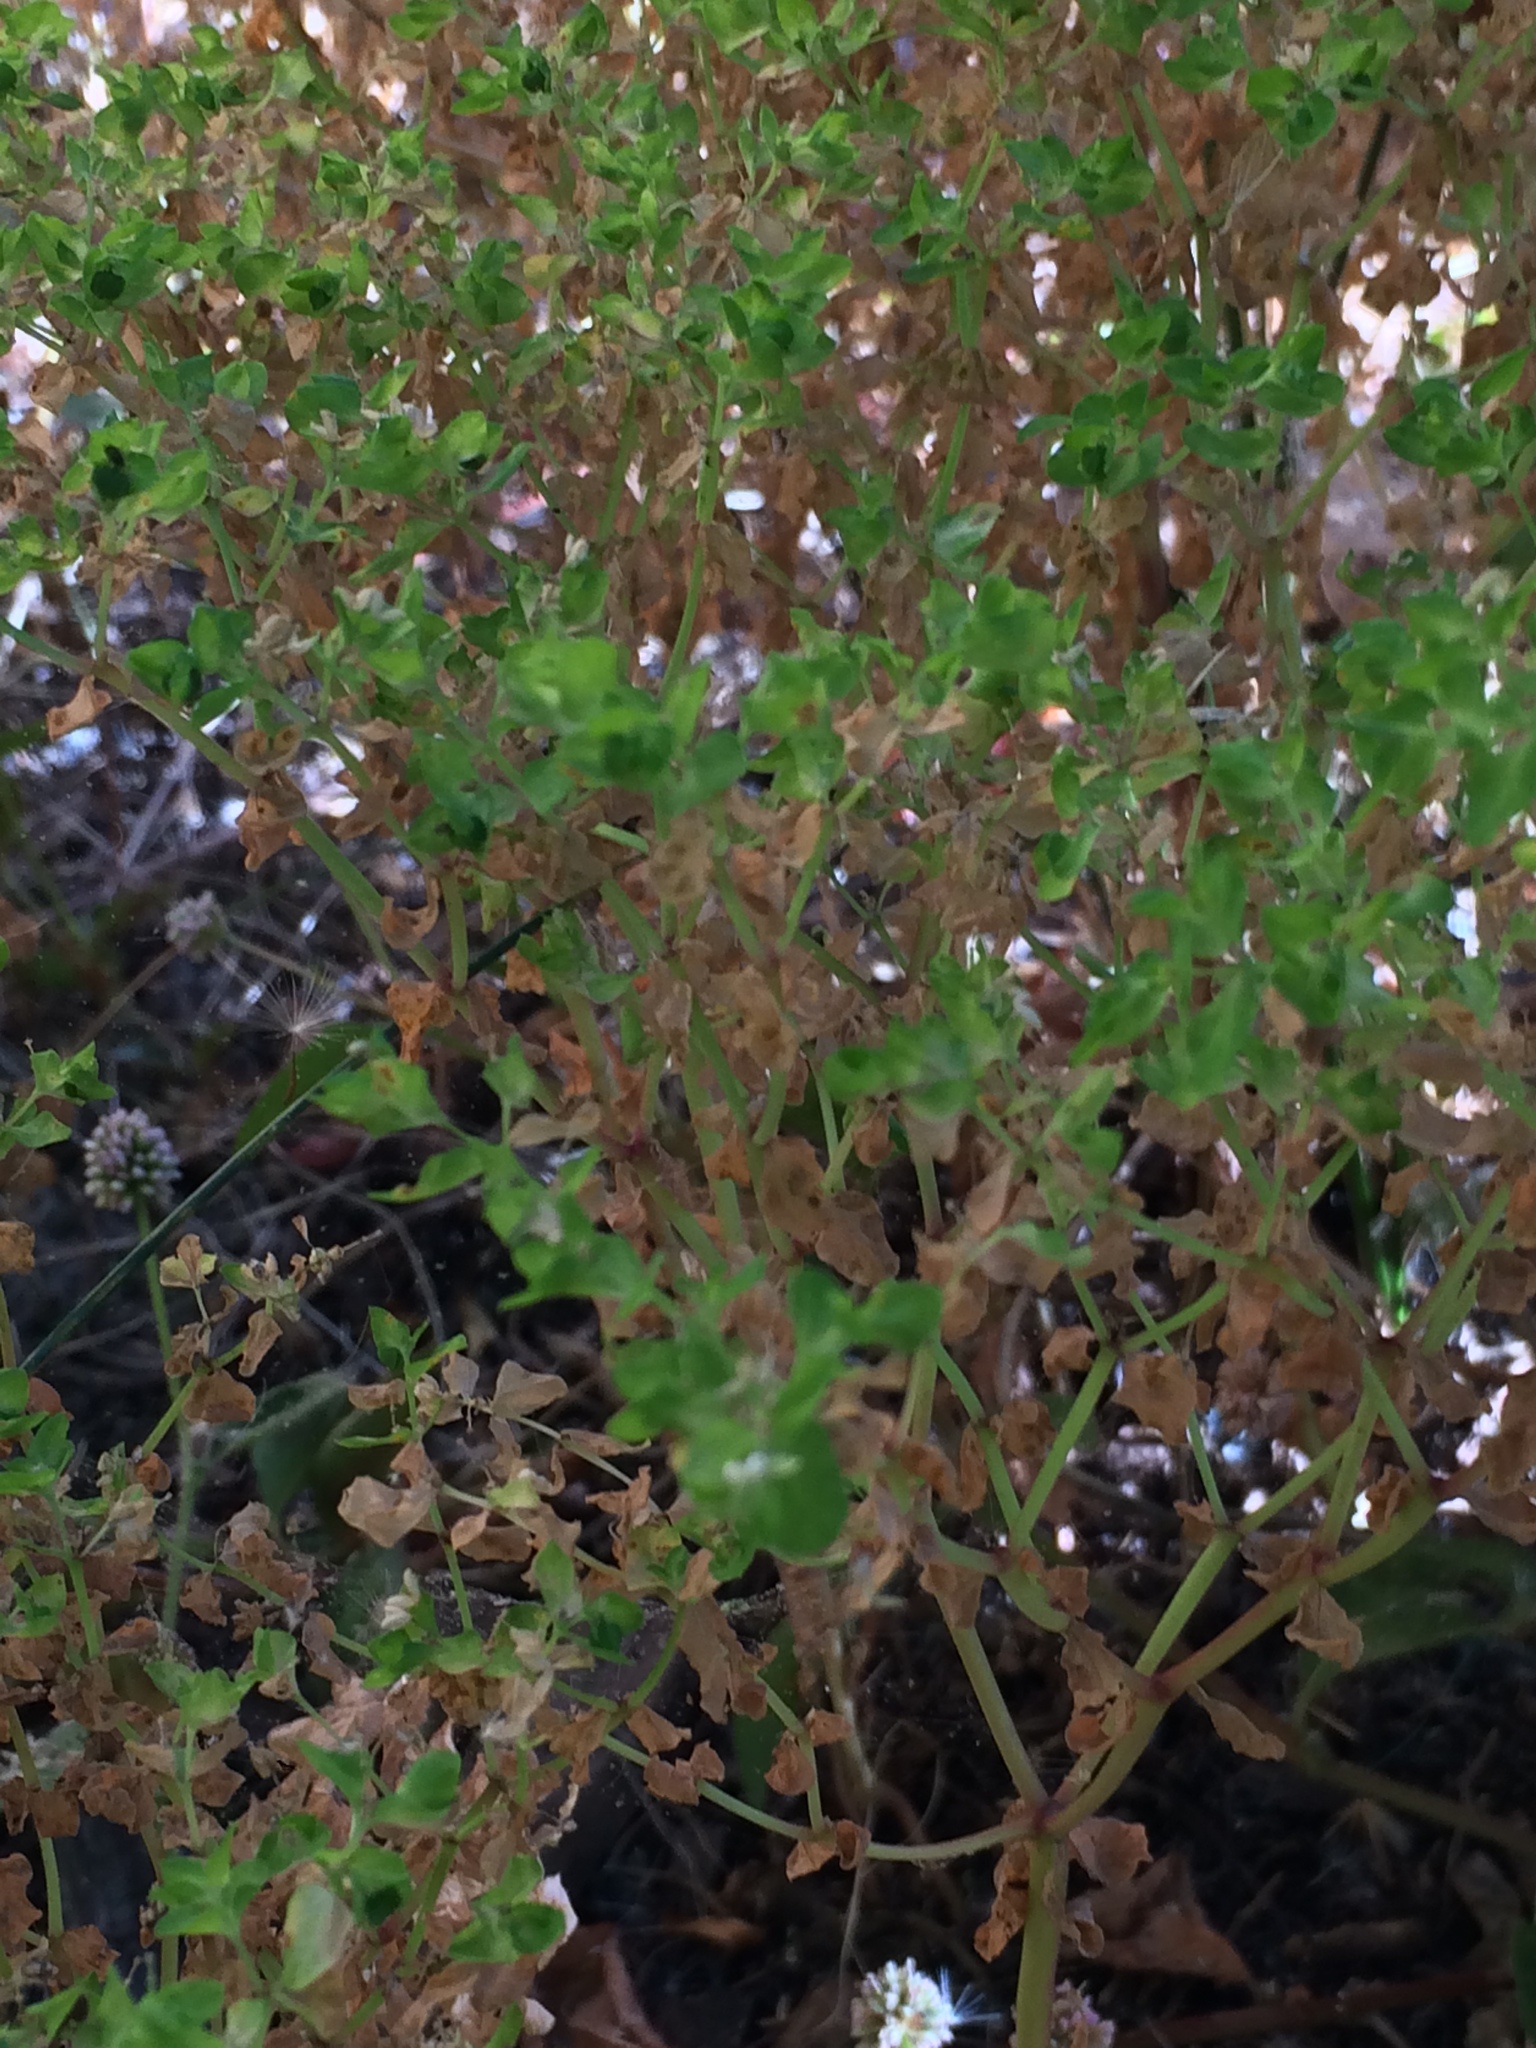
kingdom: Plantae
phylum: Tracheophyta
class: Magnoliopsida
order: Malpighiales
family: Euphorbiaceae
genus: Euphorbia
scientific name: Euphorbia peplus
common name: Petty spurge
